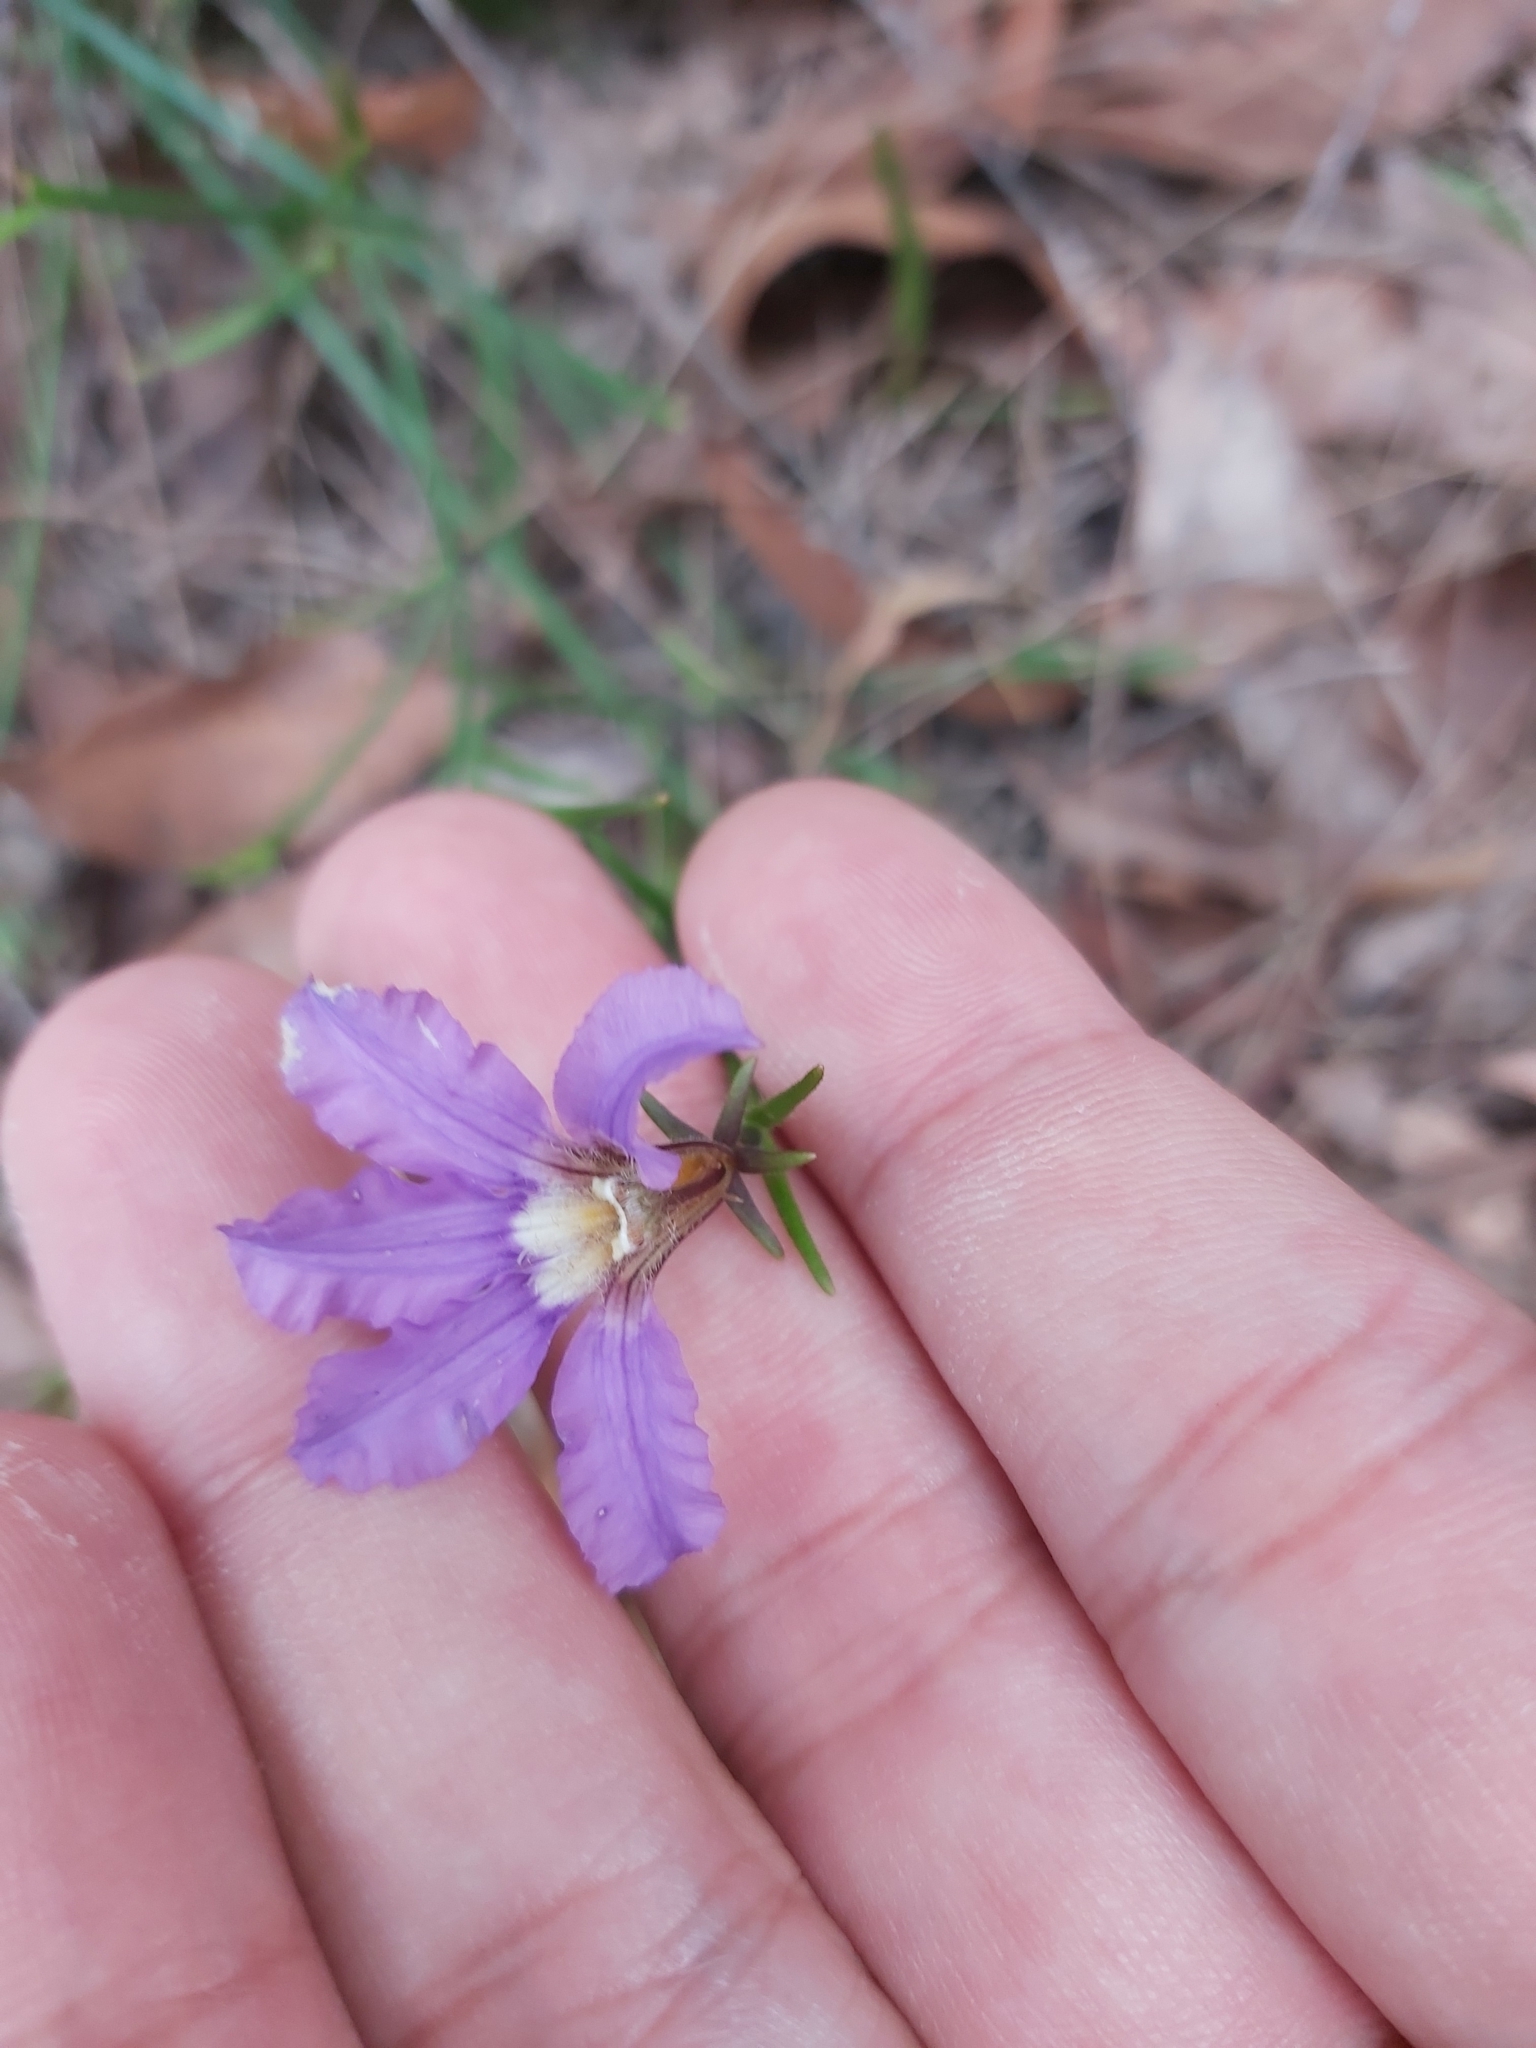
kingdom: Plantae
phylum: Tracheophyta
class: Magnoliopsida
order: Asterales
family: Goodeniaceae
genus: Scaevola
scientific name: Scaevola ramosissima
